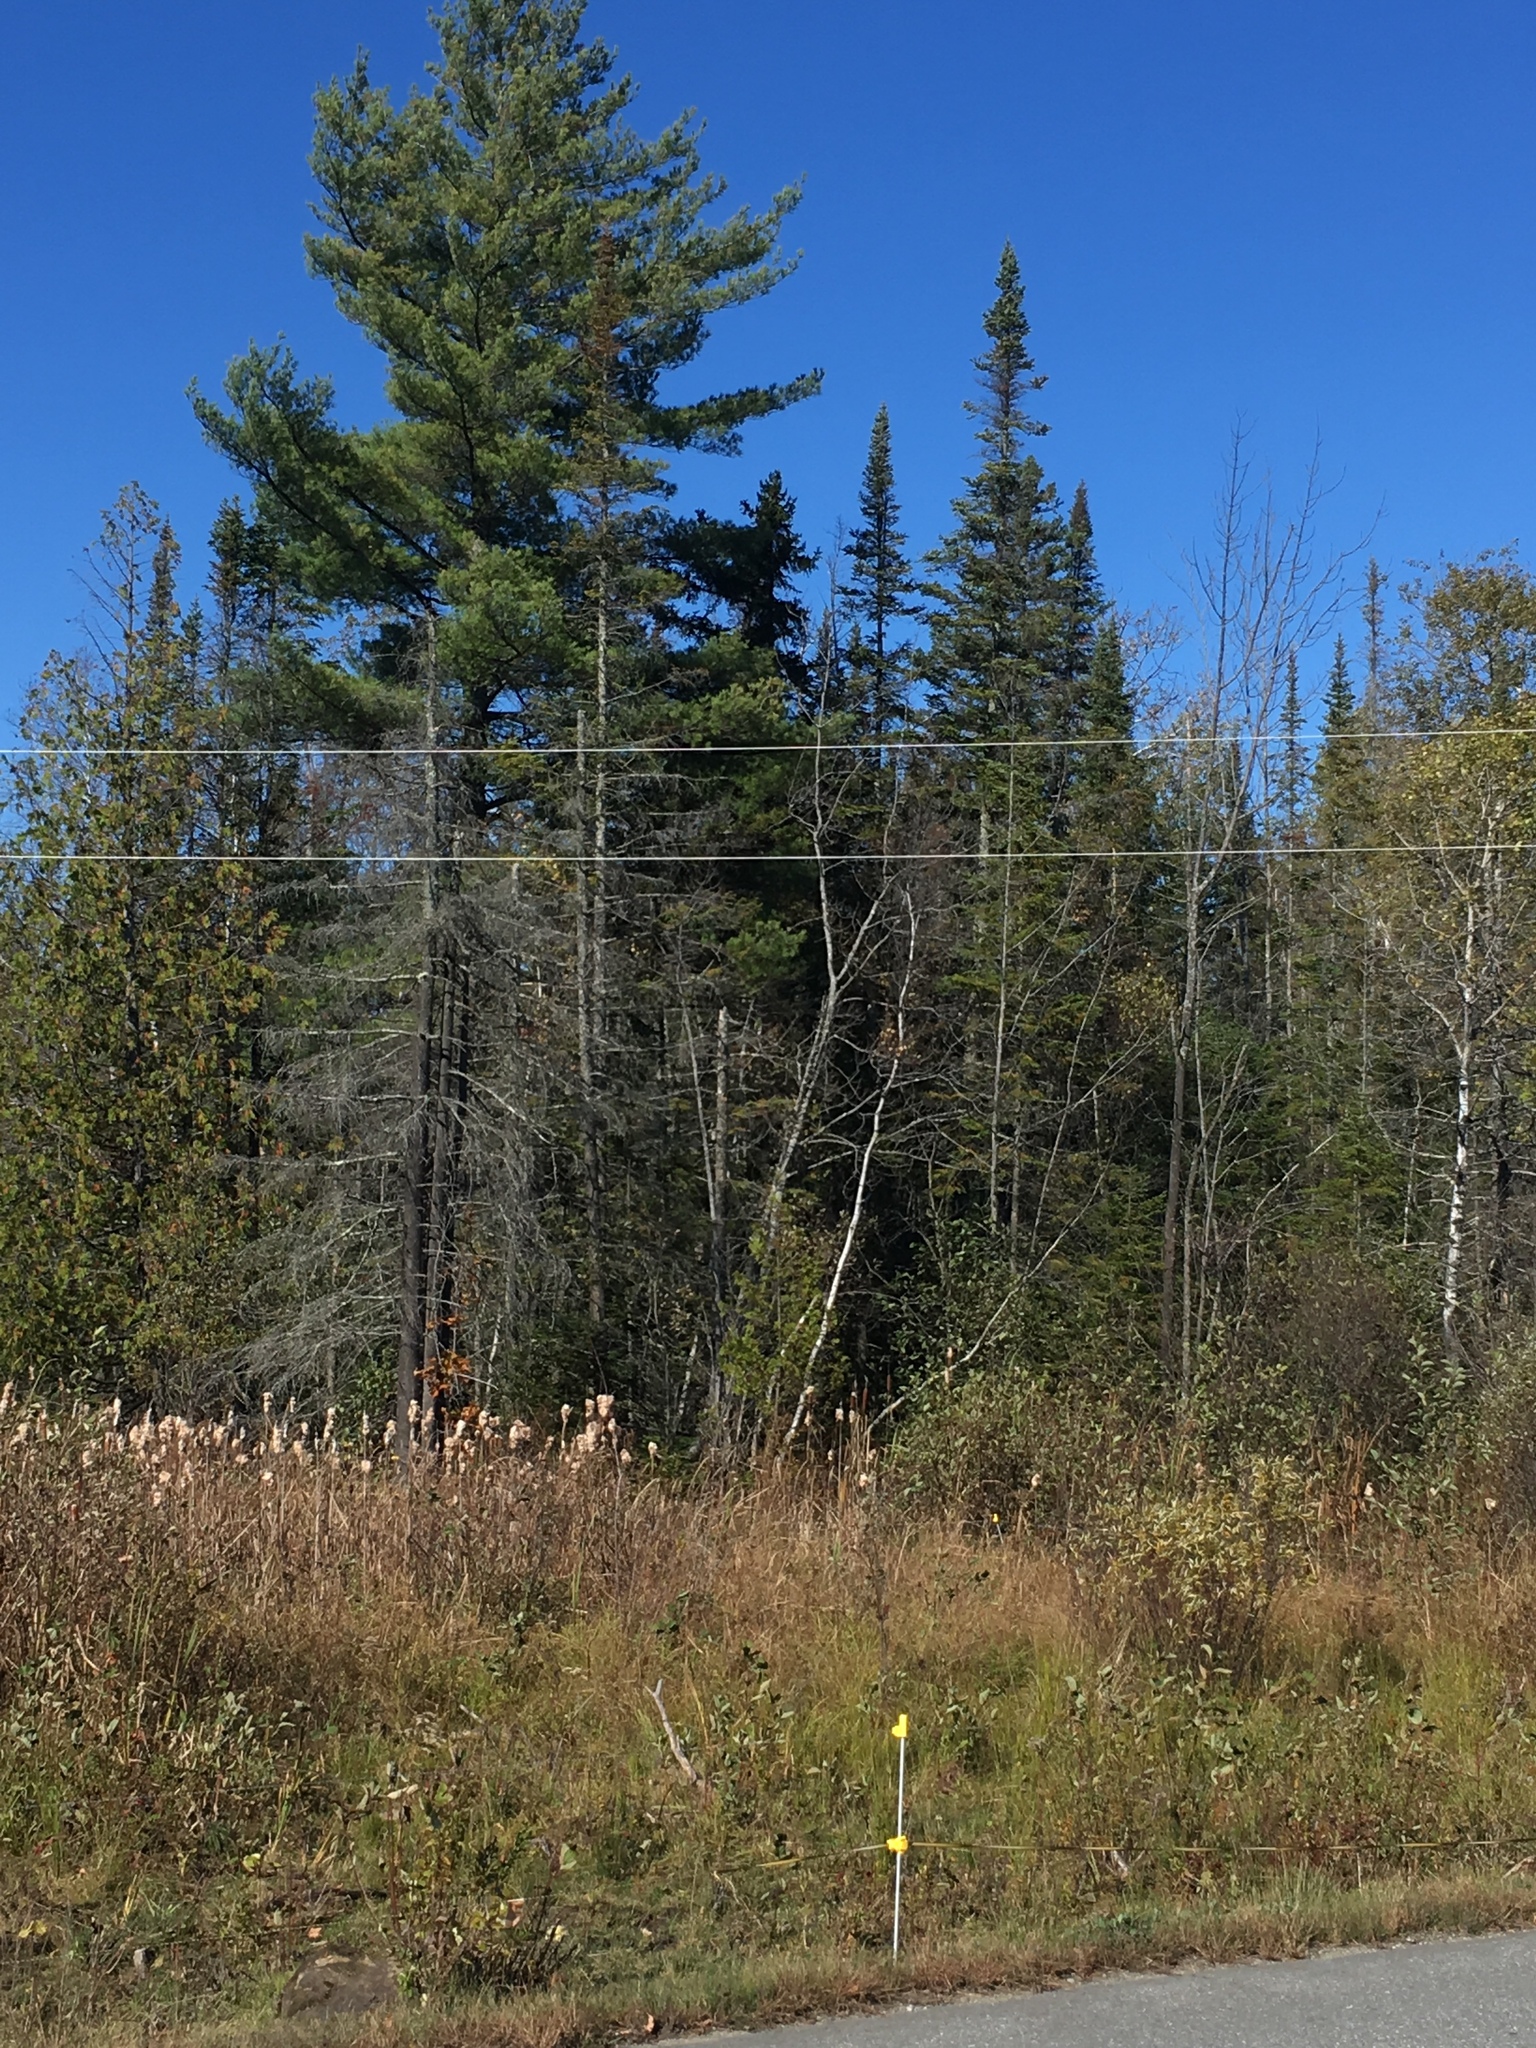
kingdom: Plantae
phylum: Tracheophyta
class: Pinopsida
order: Pinales
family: Pinaceae
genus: Pinus
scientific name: Pinus strobus
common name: Weymouth pine
